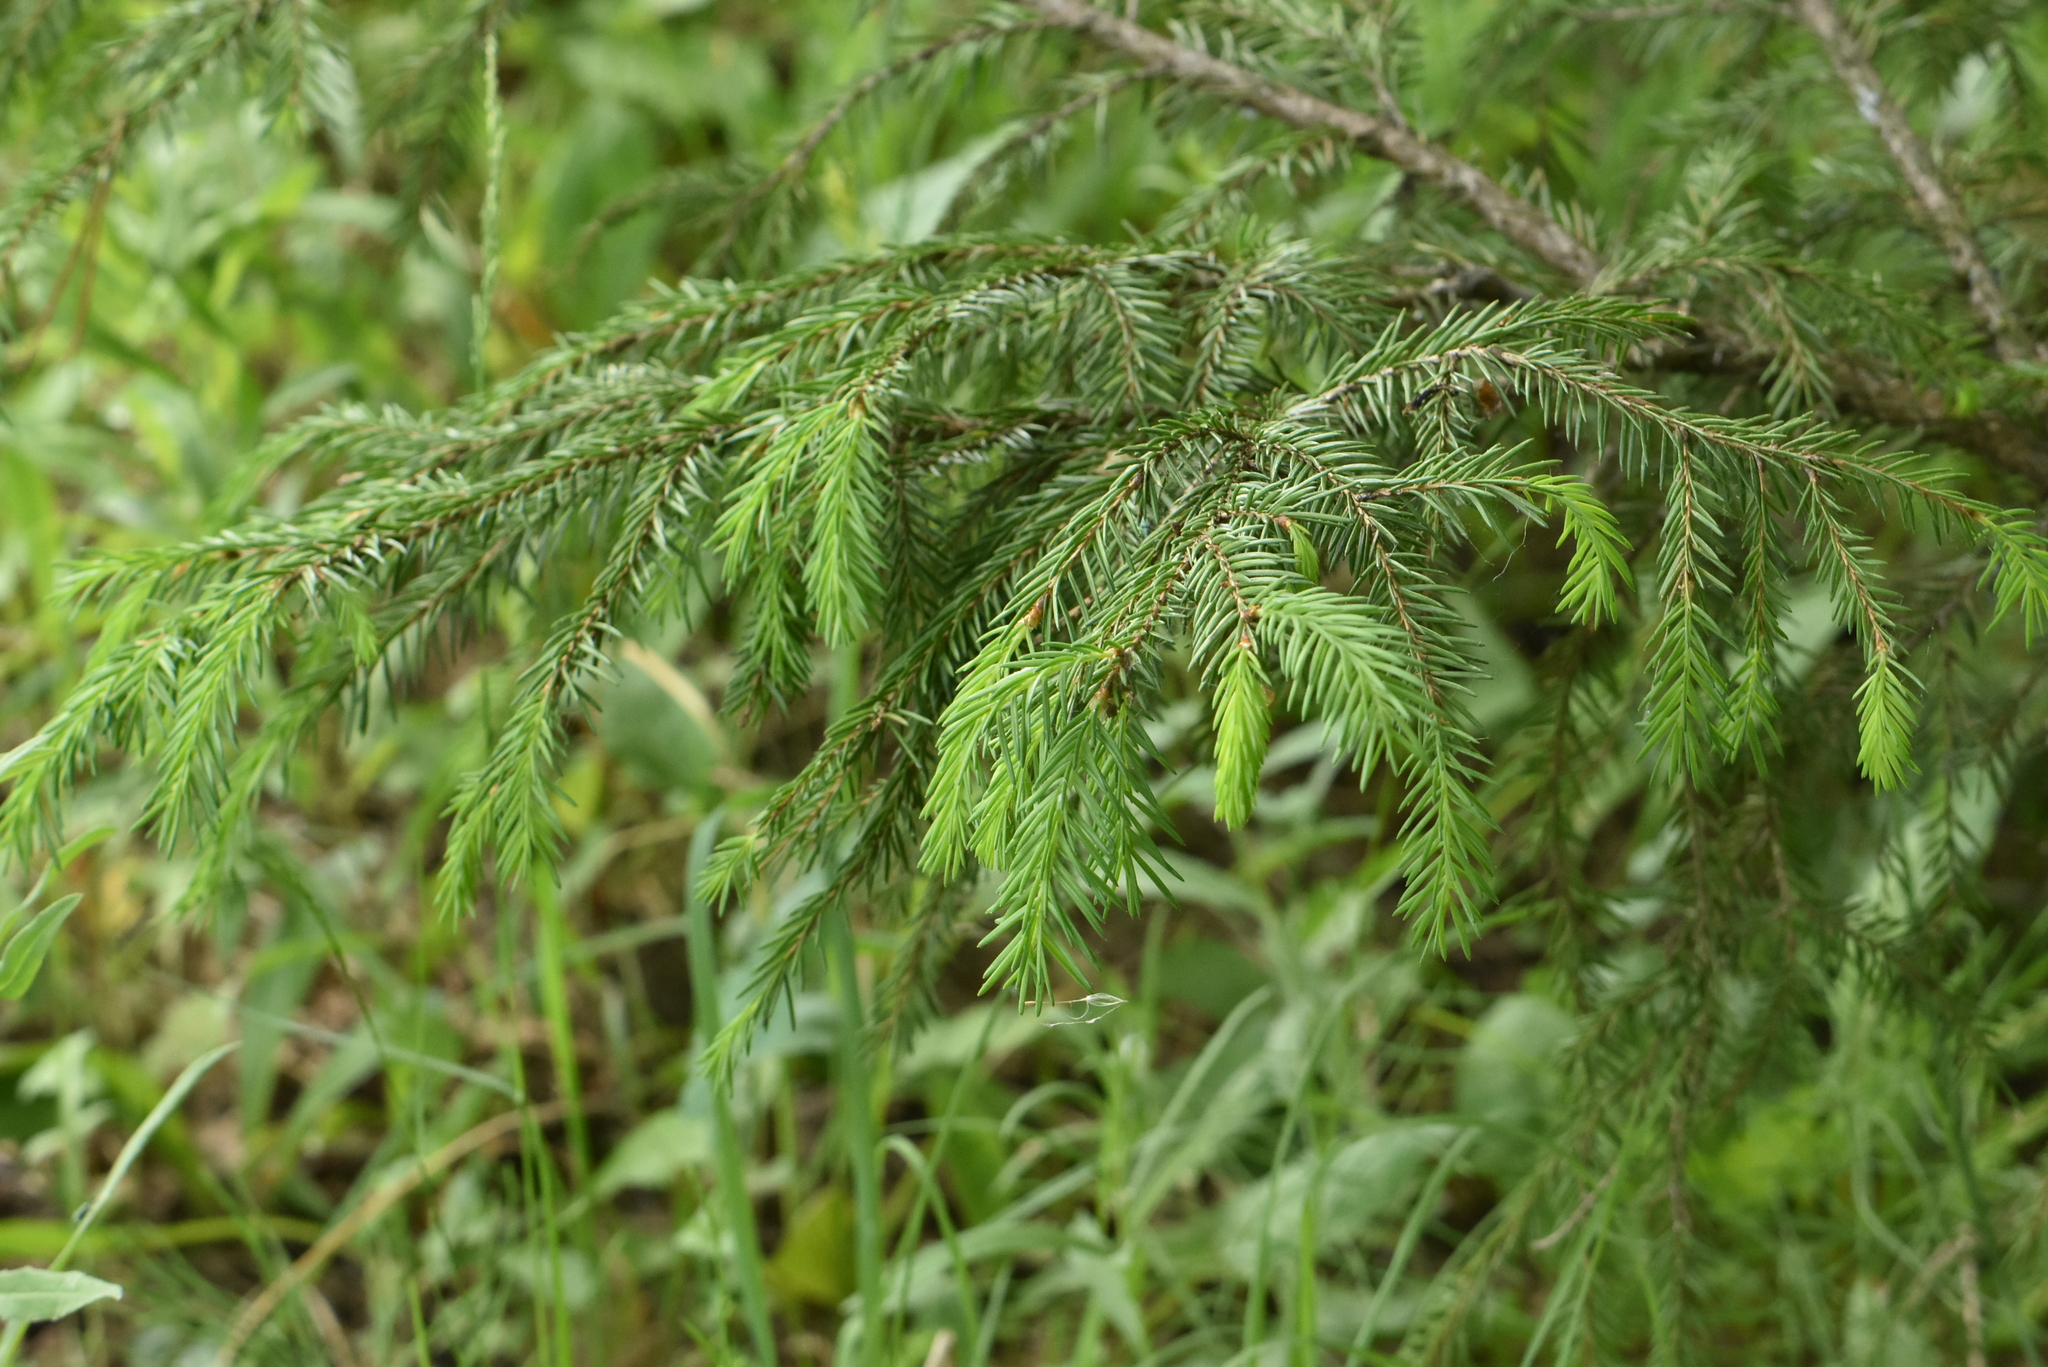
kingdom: Plantae
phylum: Tracheophyta
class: Pinopsida
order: Pinales
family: Pinaceae
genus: Picea
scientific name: Picea abies
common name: Norway spruce
